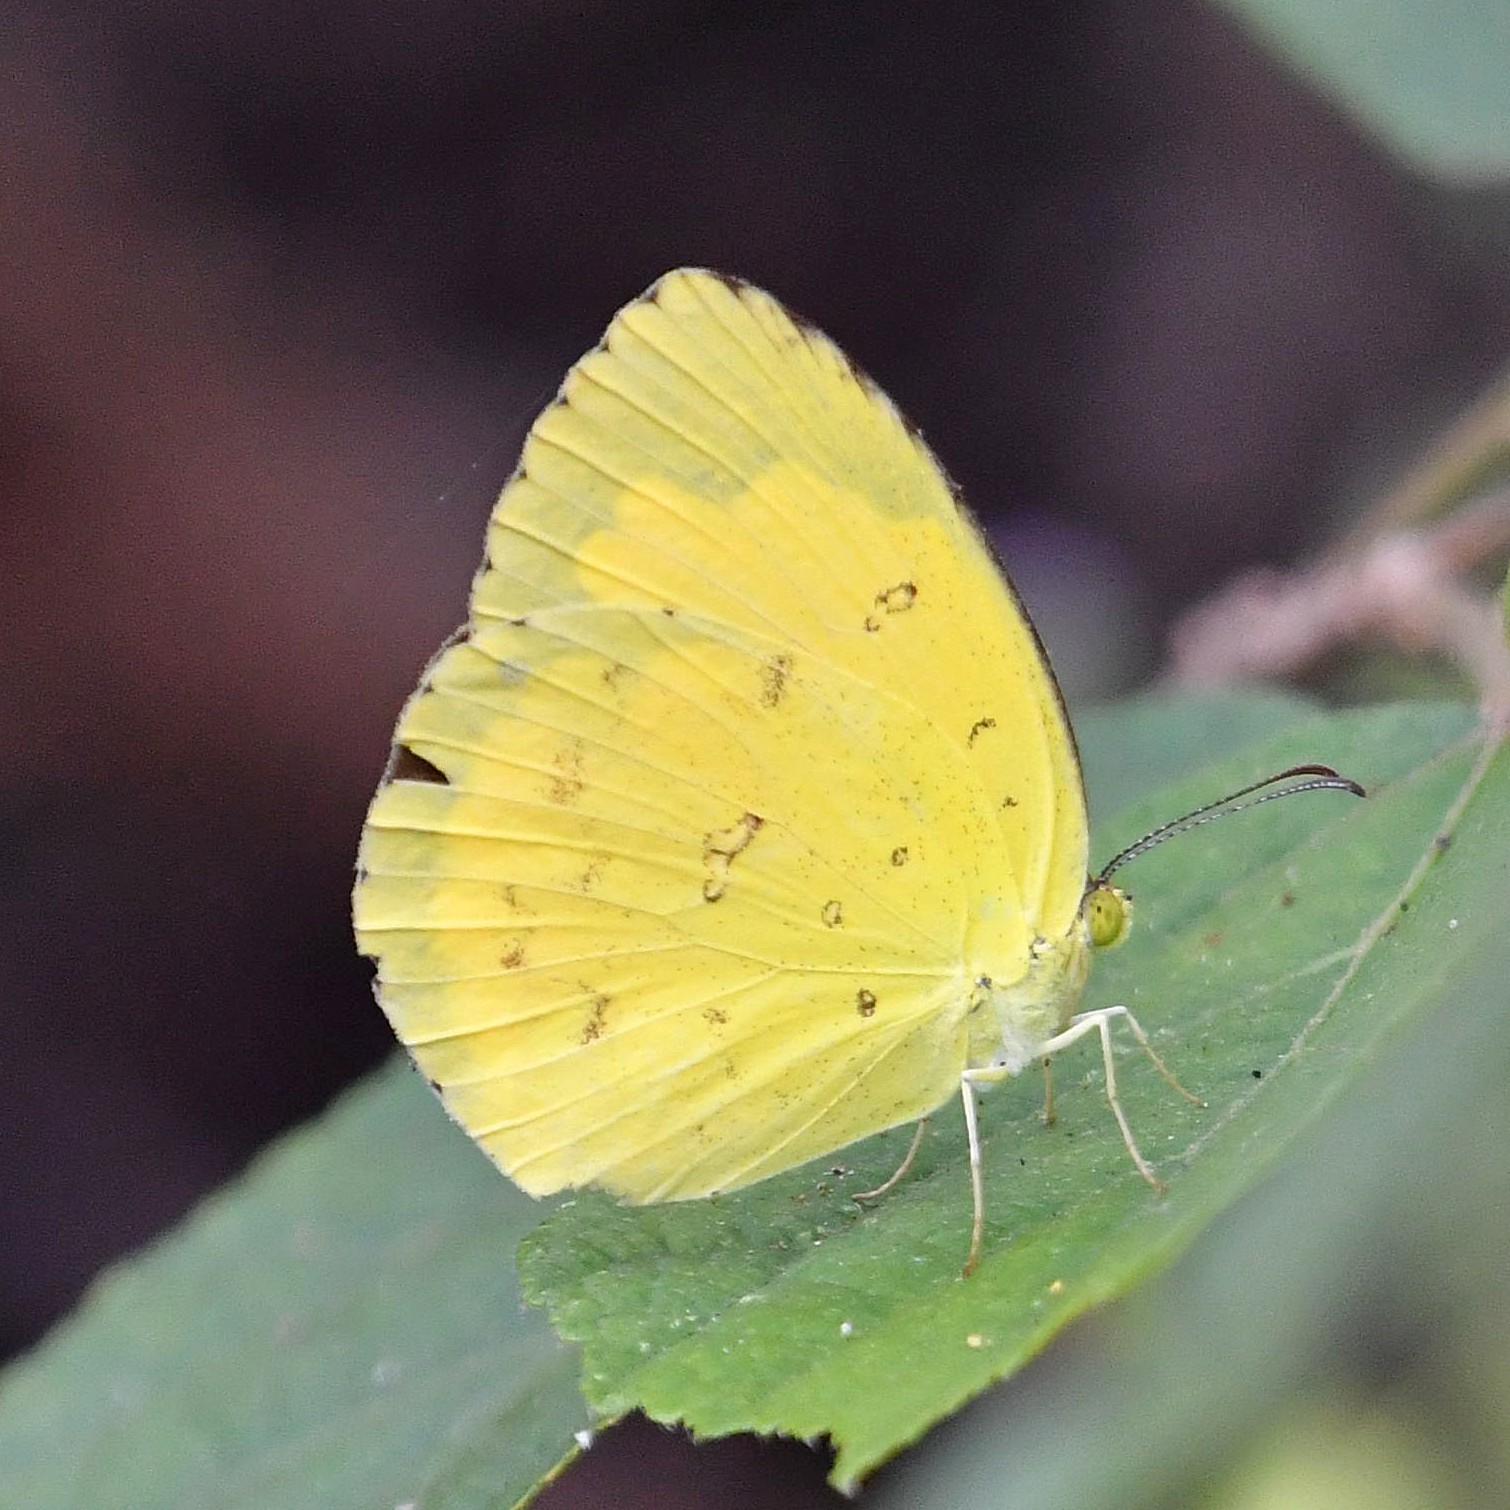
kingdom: Animalia
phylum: Arthropoda
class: Insecta
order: Lepidoptera
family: Pieridae
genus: Eurema
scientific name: Eurema hecabe
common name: Pale grass yellow
